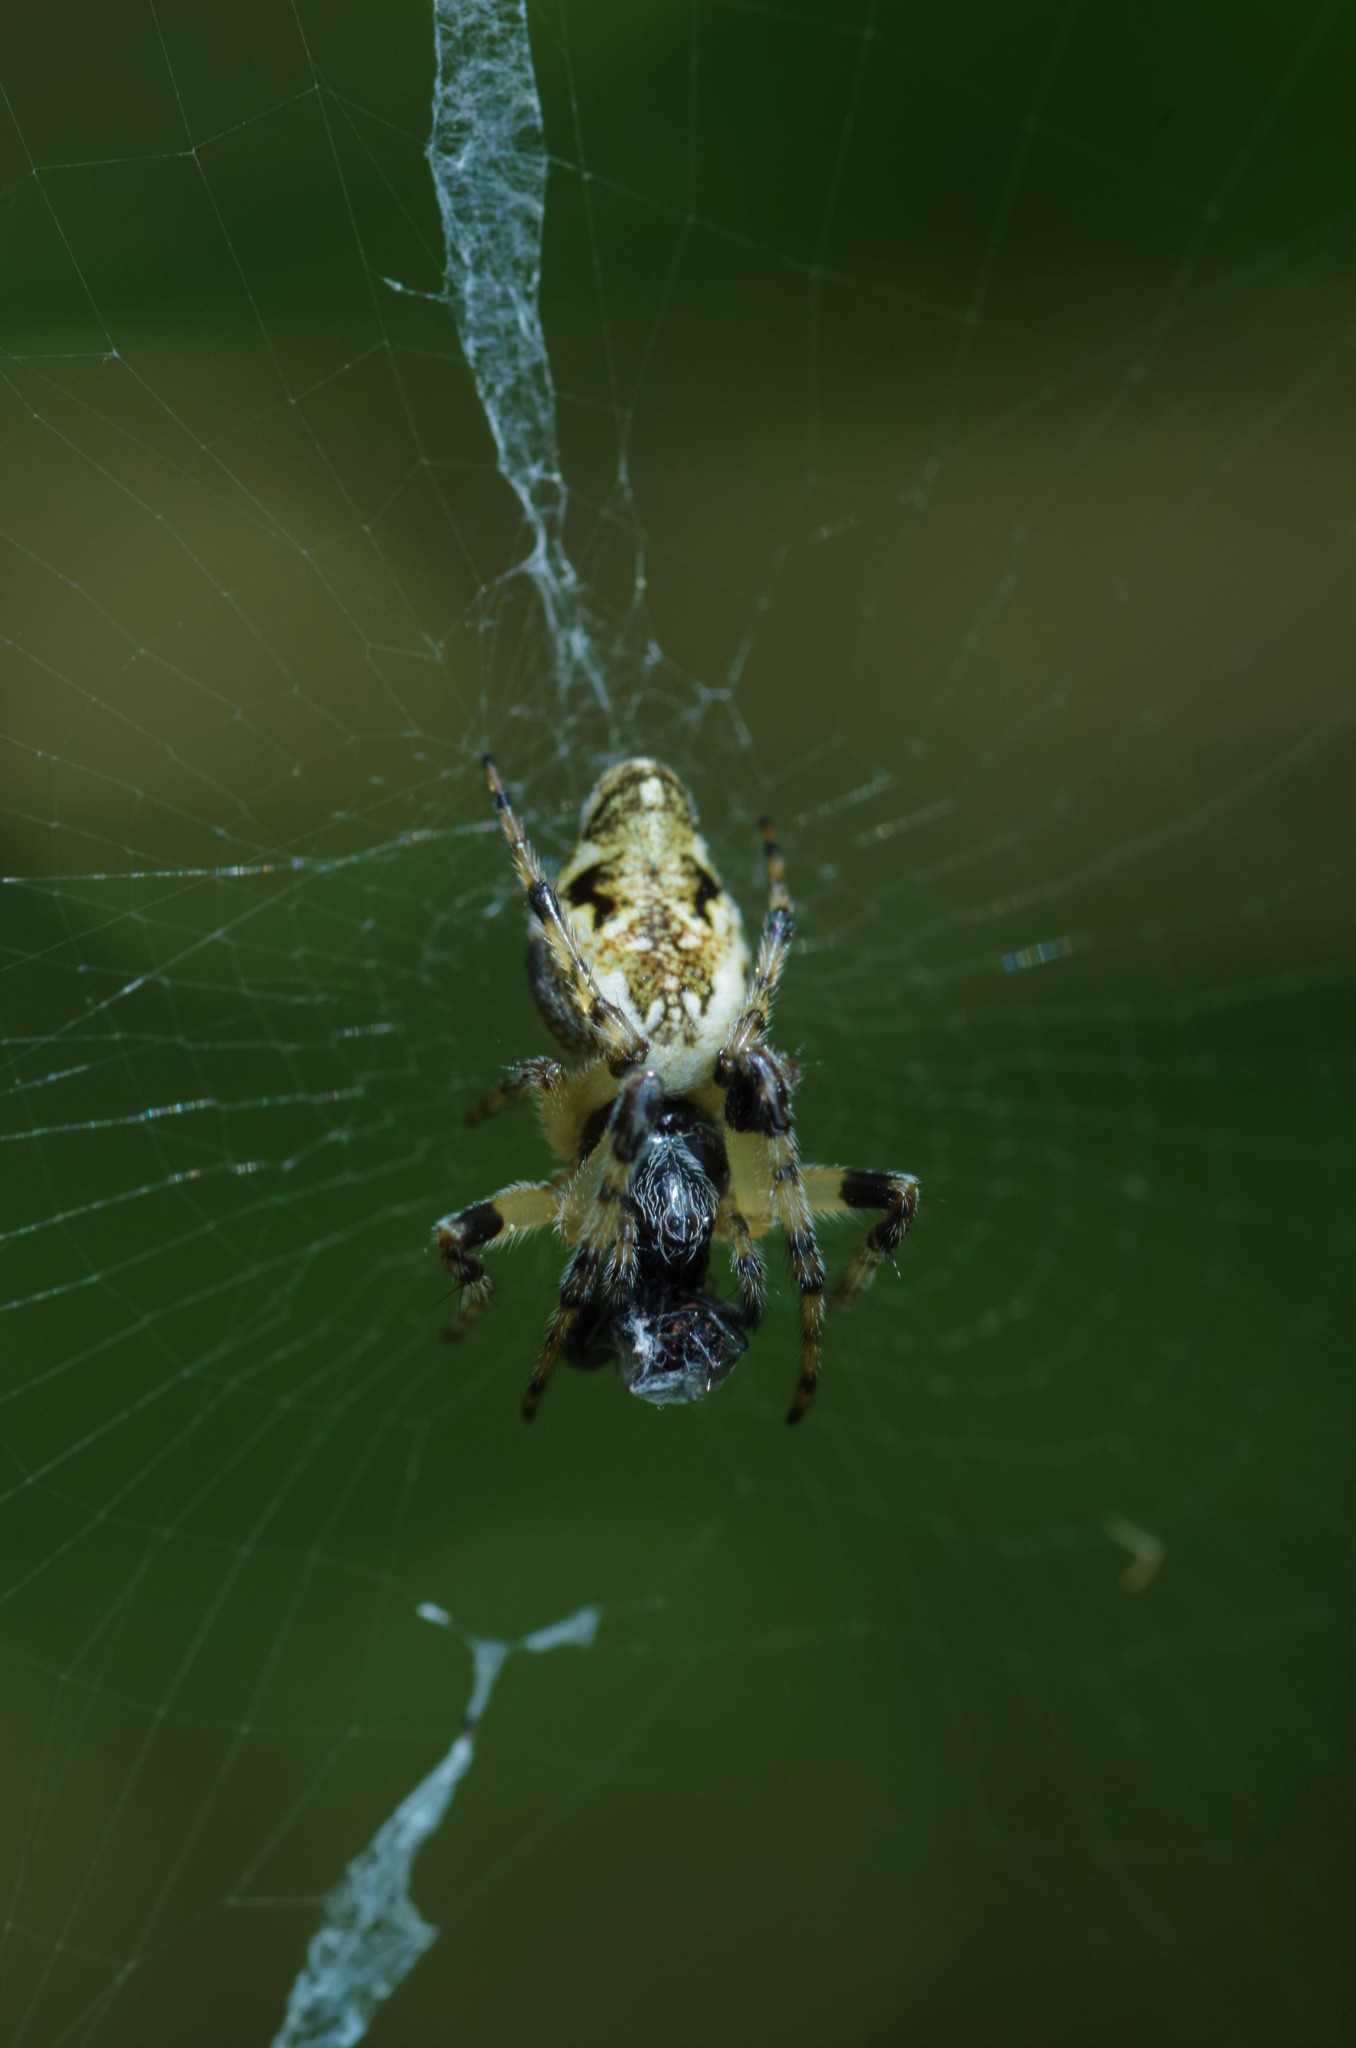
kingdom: Animalia
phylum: Arthropoda
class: Arachnida
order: Araneae
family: Araneidae
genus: Cyclosa
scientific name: Cyclosa conica
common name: Conical trashline orbweaver
